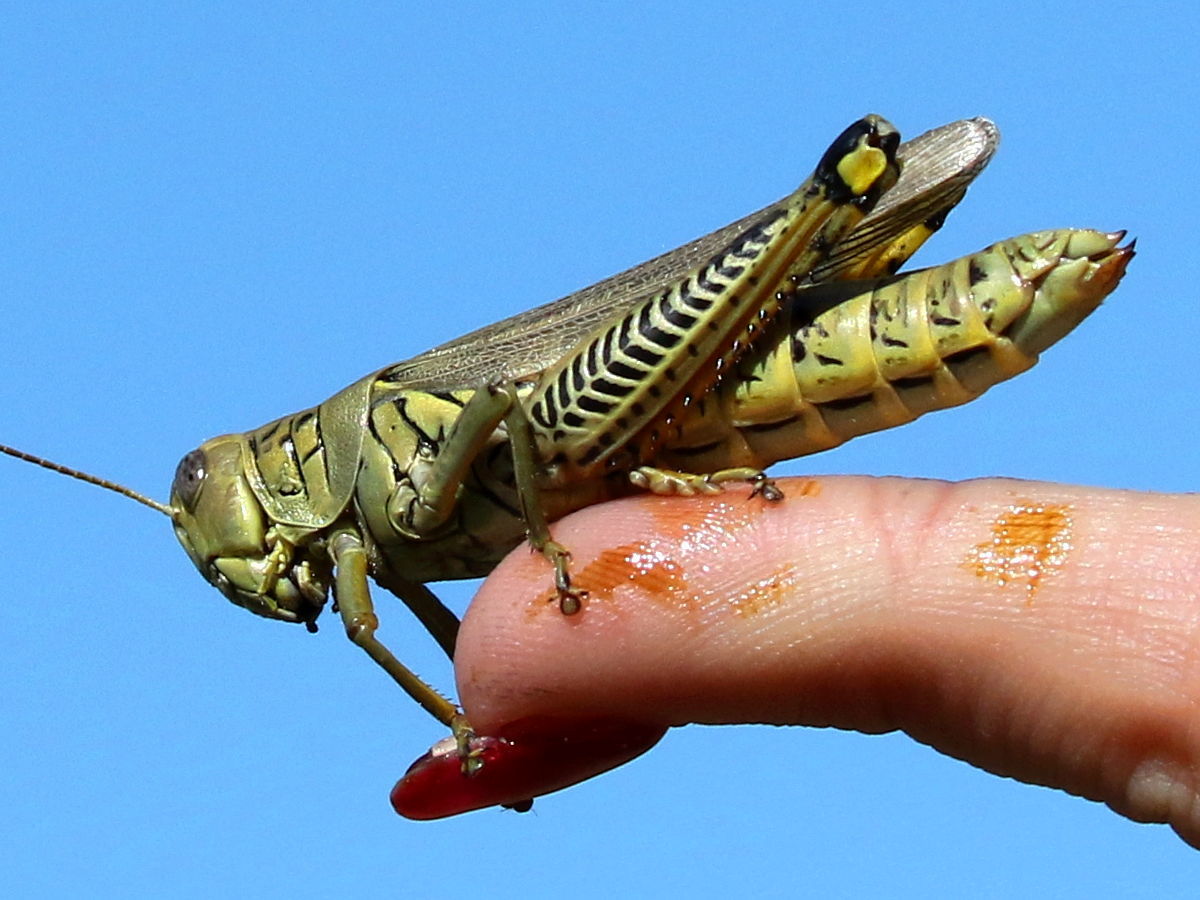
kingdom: Animalia
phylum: Arthropoda
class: Insecta
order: Orthoptera
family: Acrididae
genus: Melanoplus
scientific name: Melanoplus differentialis
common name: Differential grasshopper
